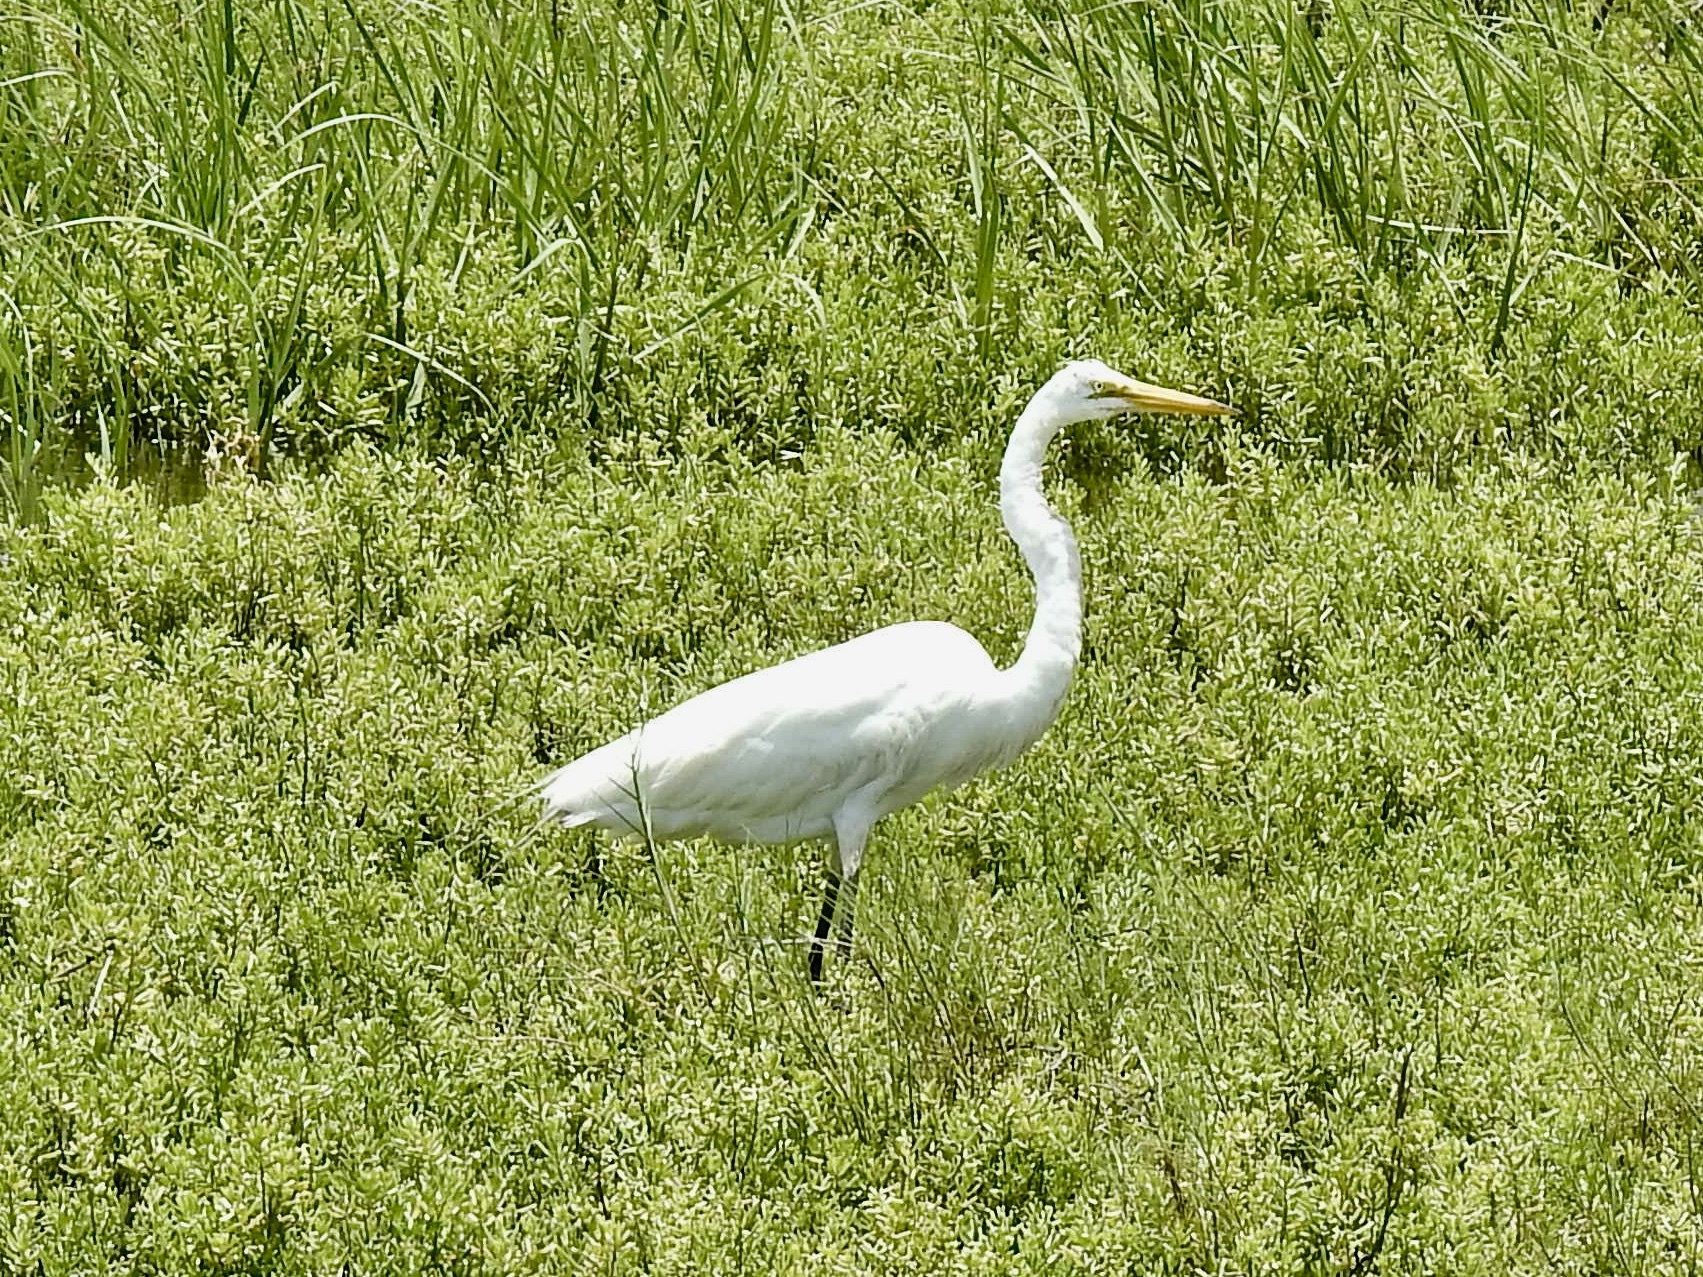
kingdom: Animalia
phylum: Chordata
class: Aves
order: Pelecaniformes
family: Ardeidae
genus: Ardea
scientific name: Ardea alba
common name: Great egret
